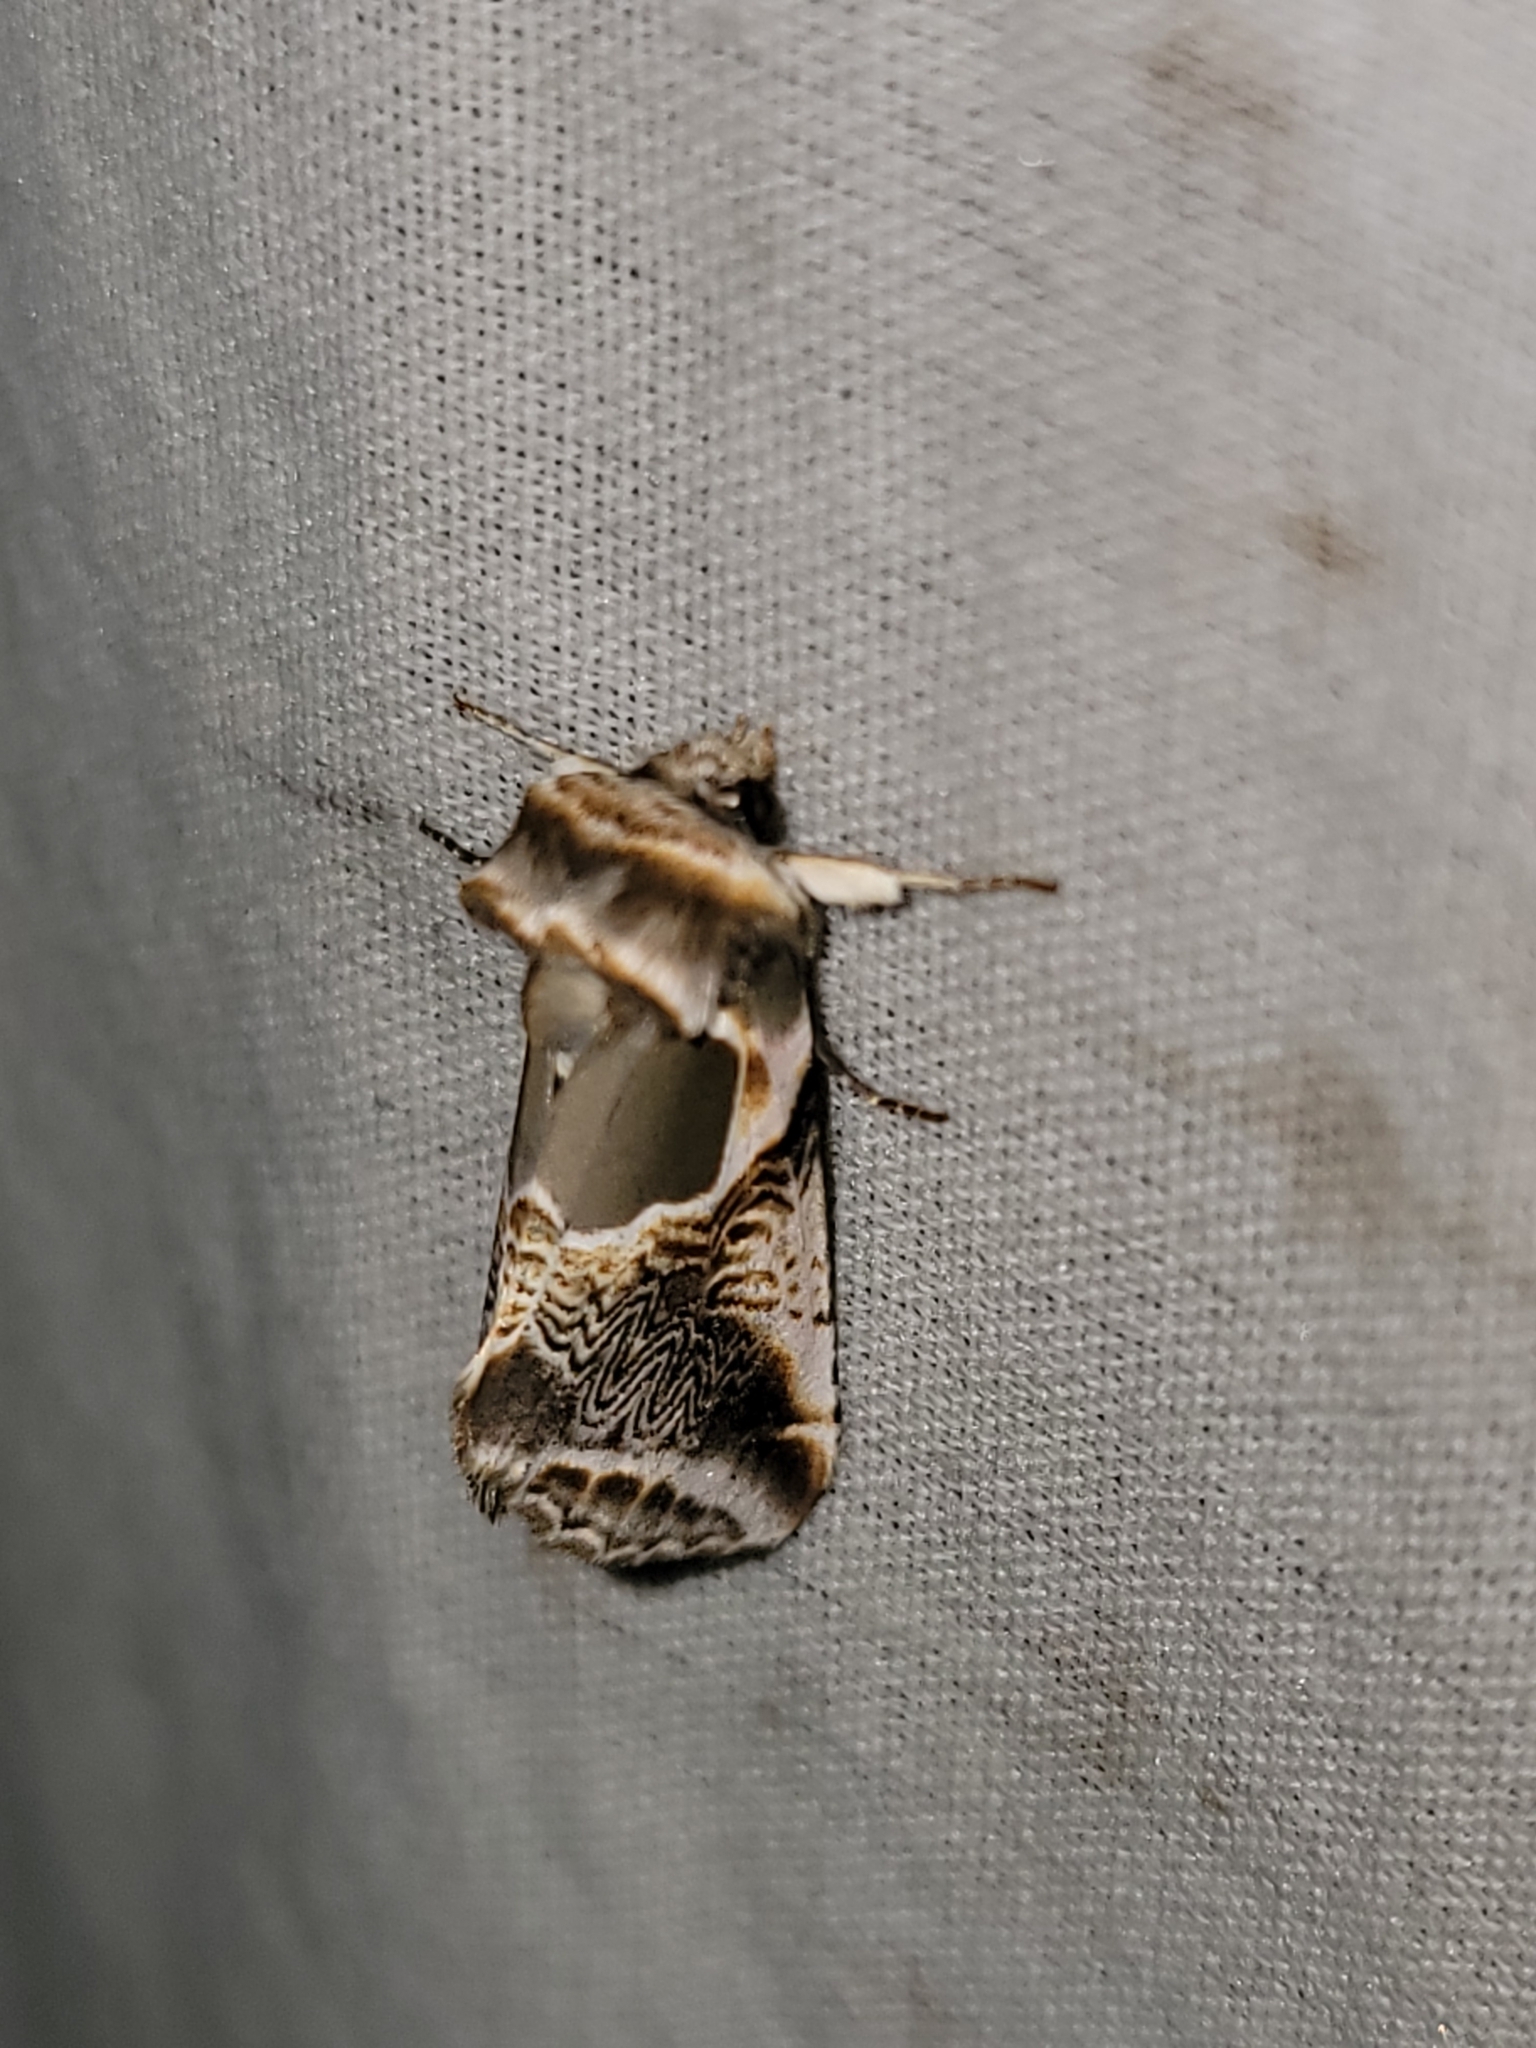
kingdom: Animalia
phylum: Arthropoda
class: Insecta
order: Lepidoptera
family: Drepanidae
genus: Habrosyne
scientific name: Habrosyne scripta
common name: Lettered habrosyne moth
